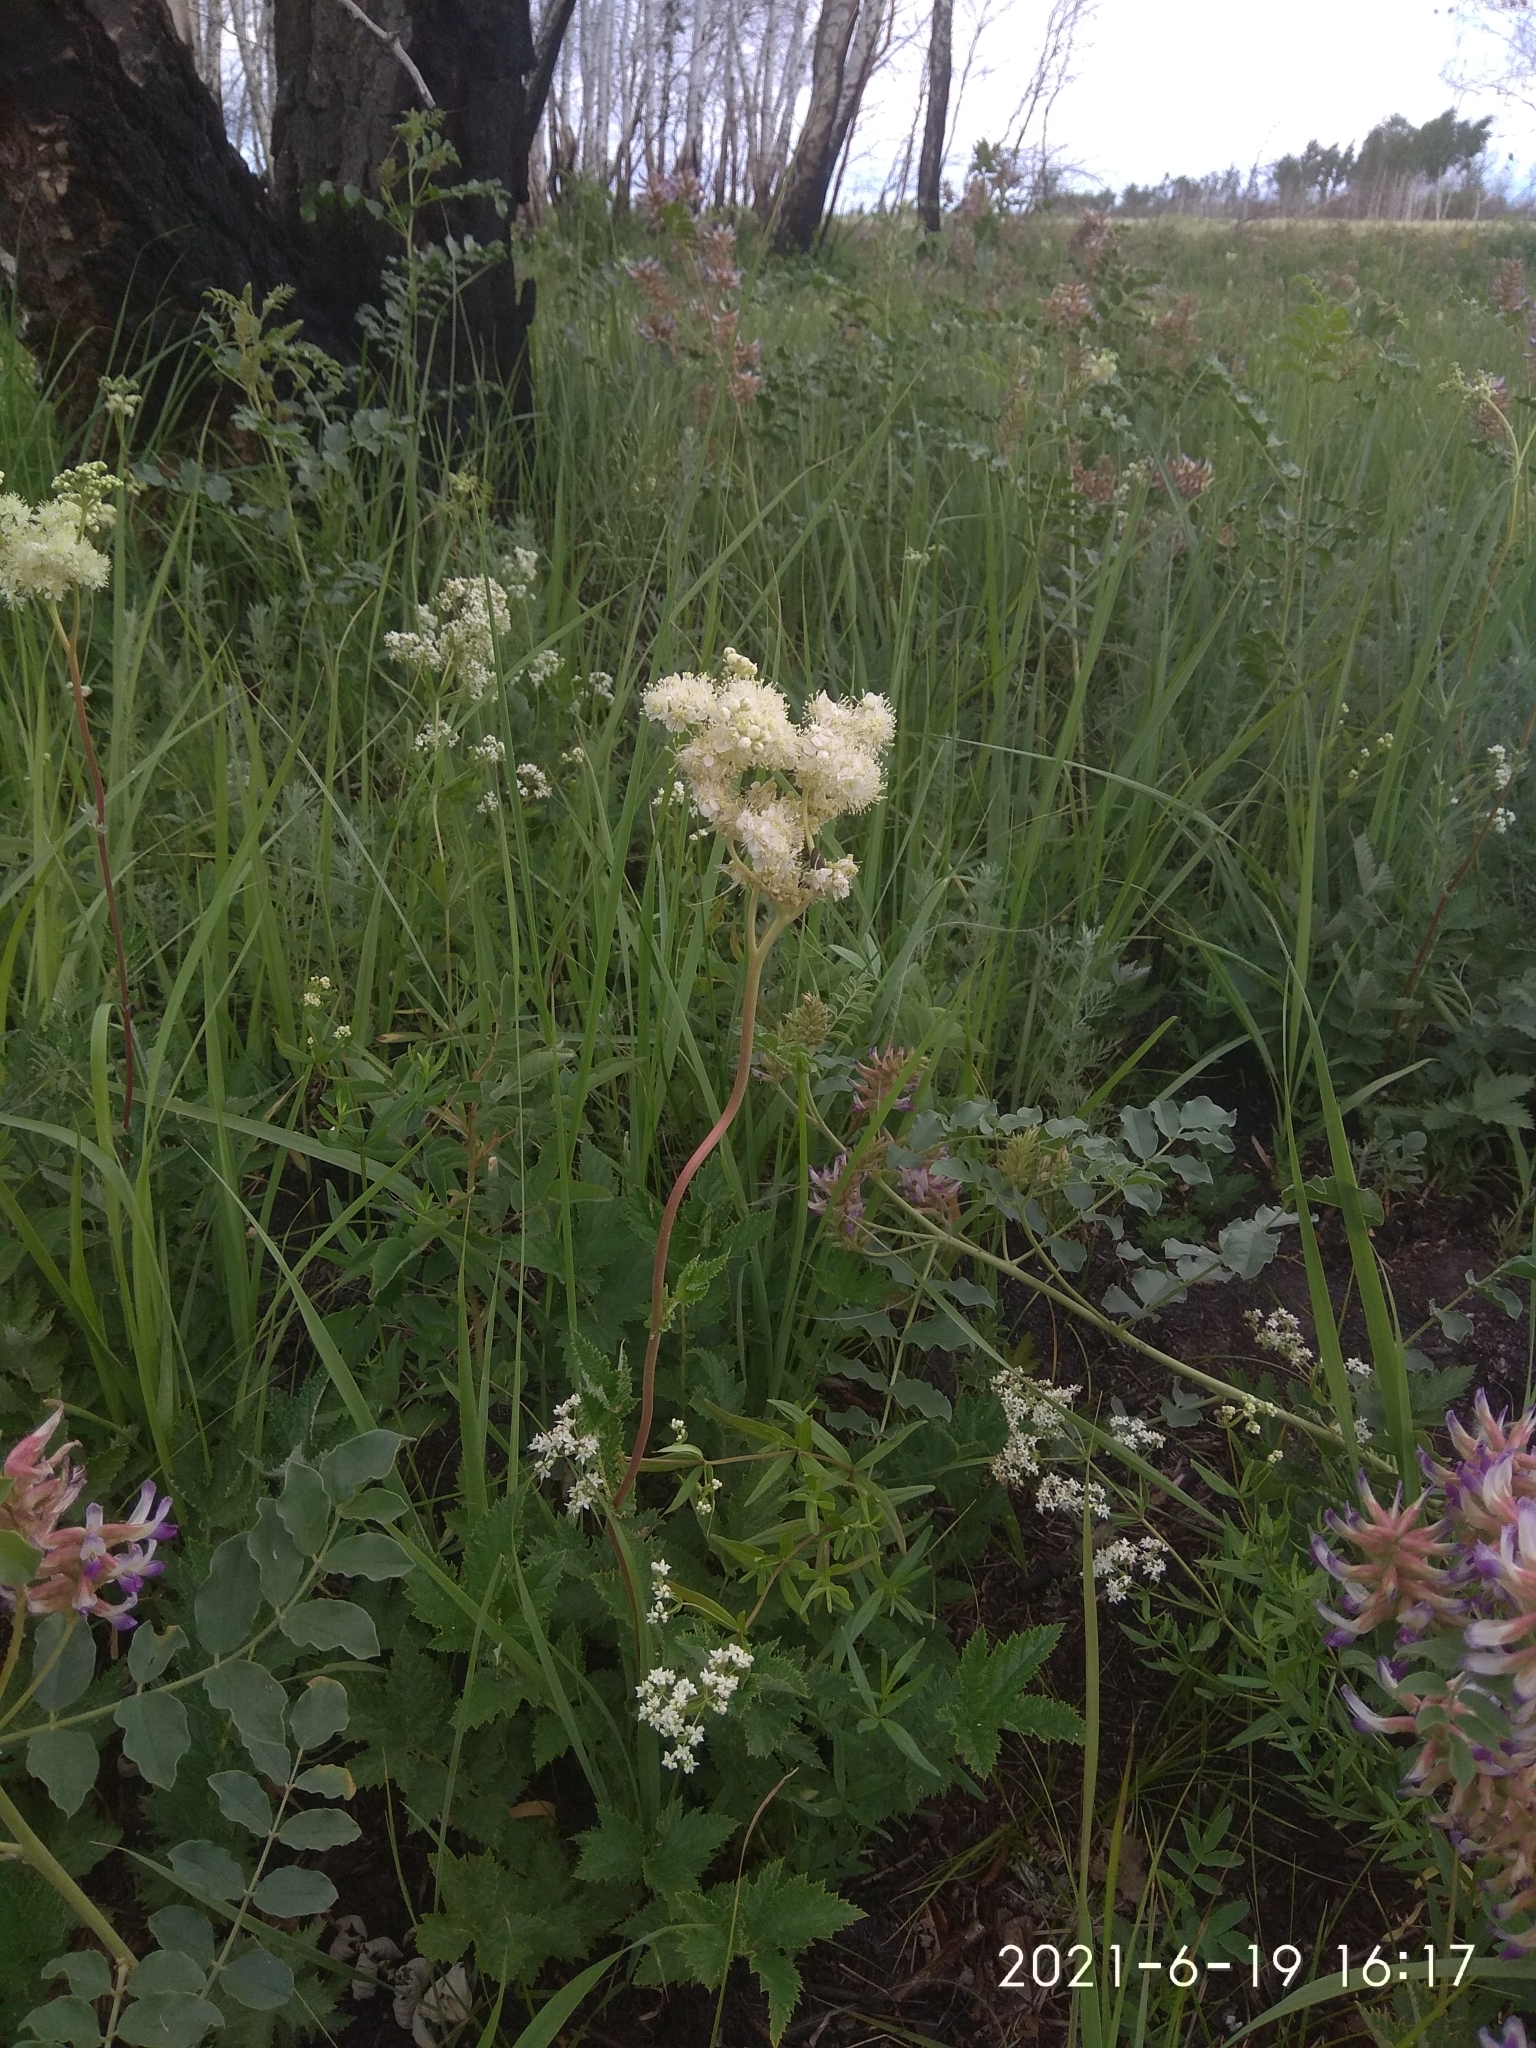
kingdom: Plantae
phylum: Tracheophyta
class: Magnoliopsida
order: Rosales
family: Rosaceae
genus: Filipendula
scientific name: Filipendula ulmaria
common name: Meadowsweet
